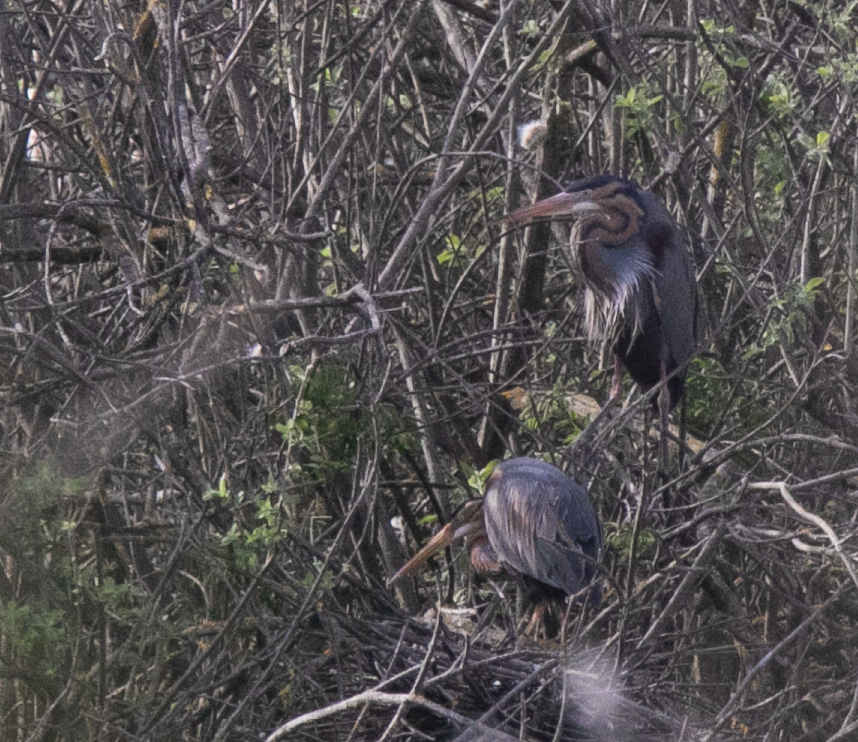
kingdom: Animalia
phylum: Chordata
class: Aves
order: Pelecaniformes
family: Ardeidae
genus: Ardea
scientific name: Ardea purpurea
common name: Purple heron
